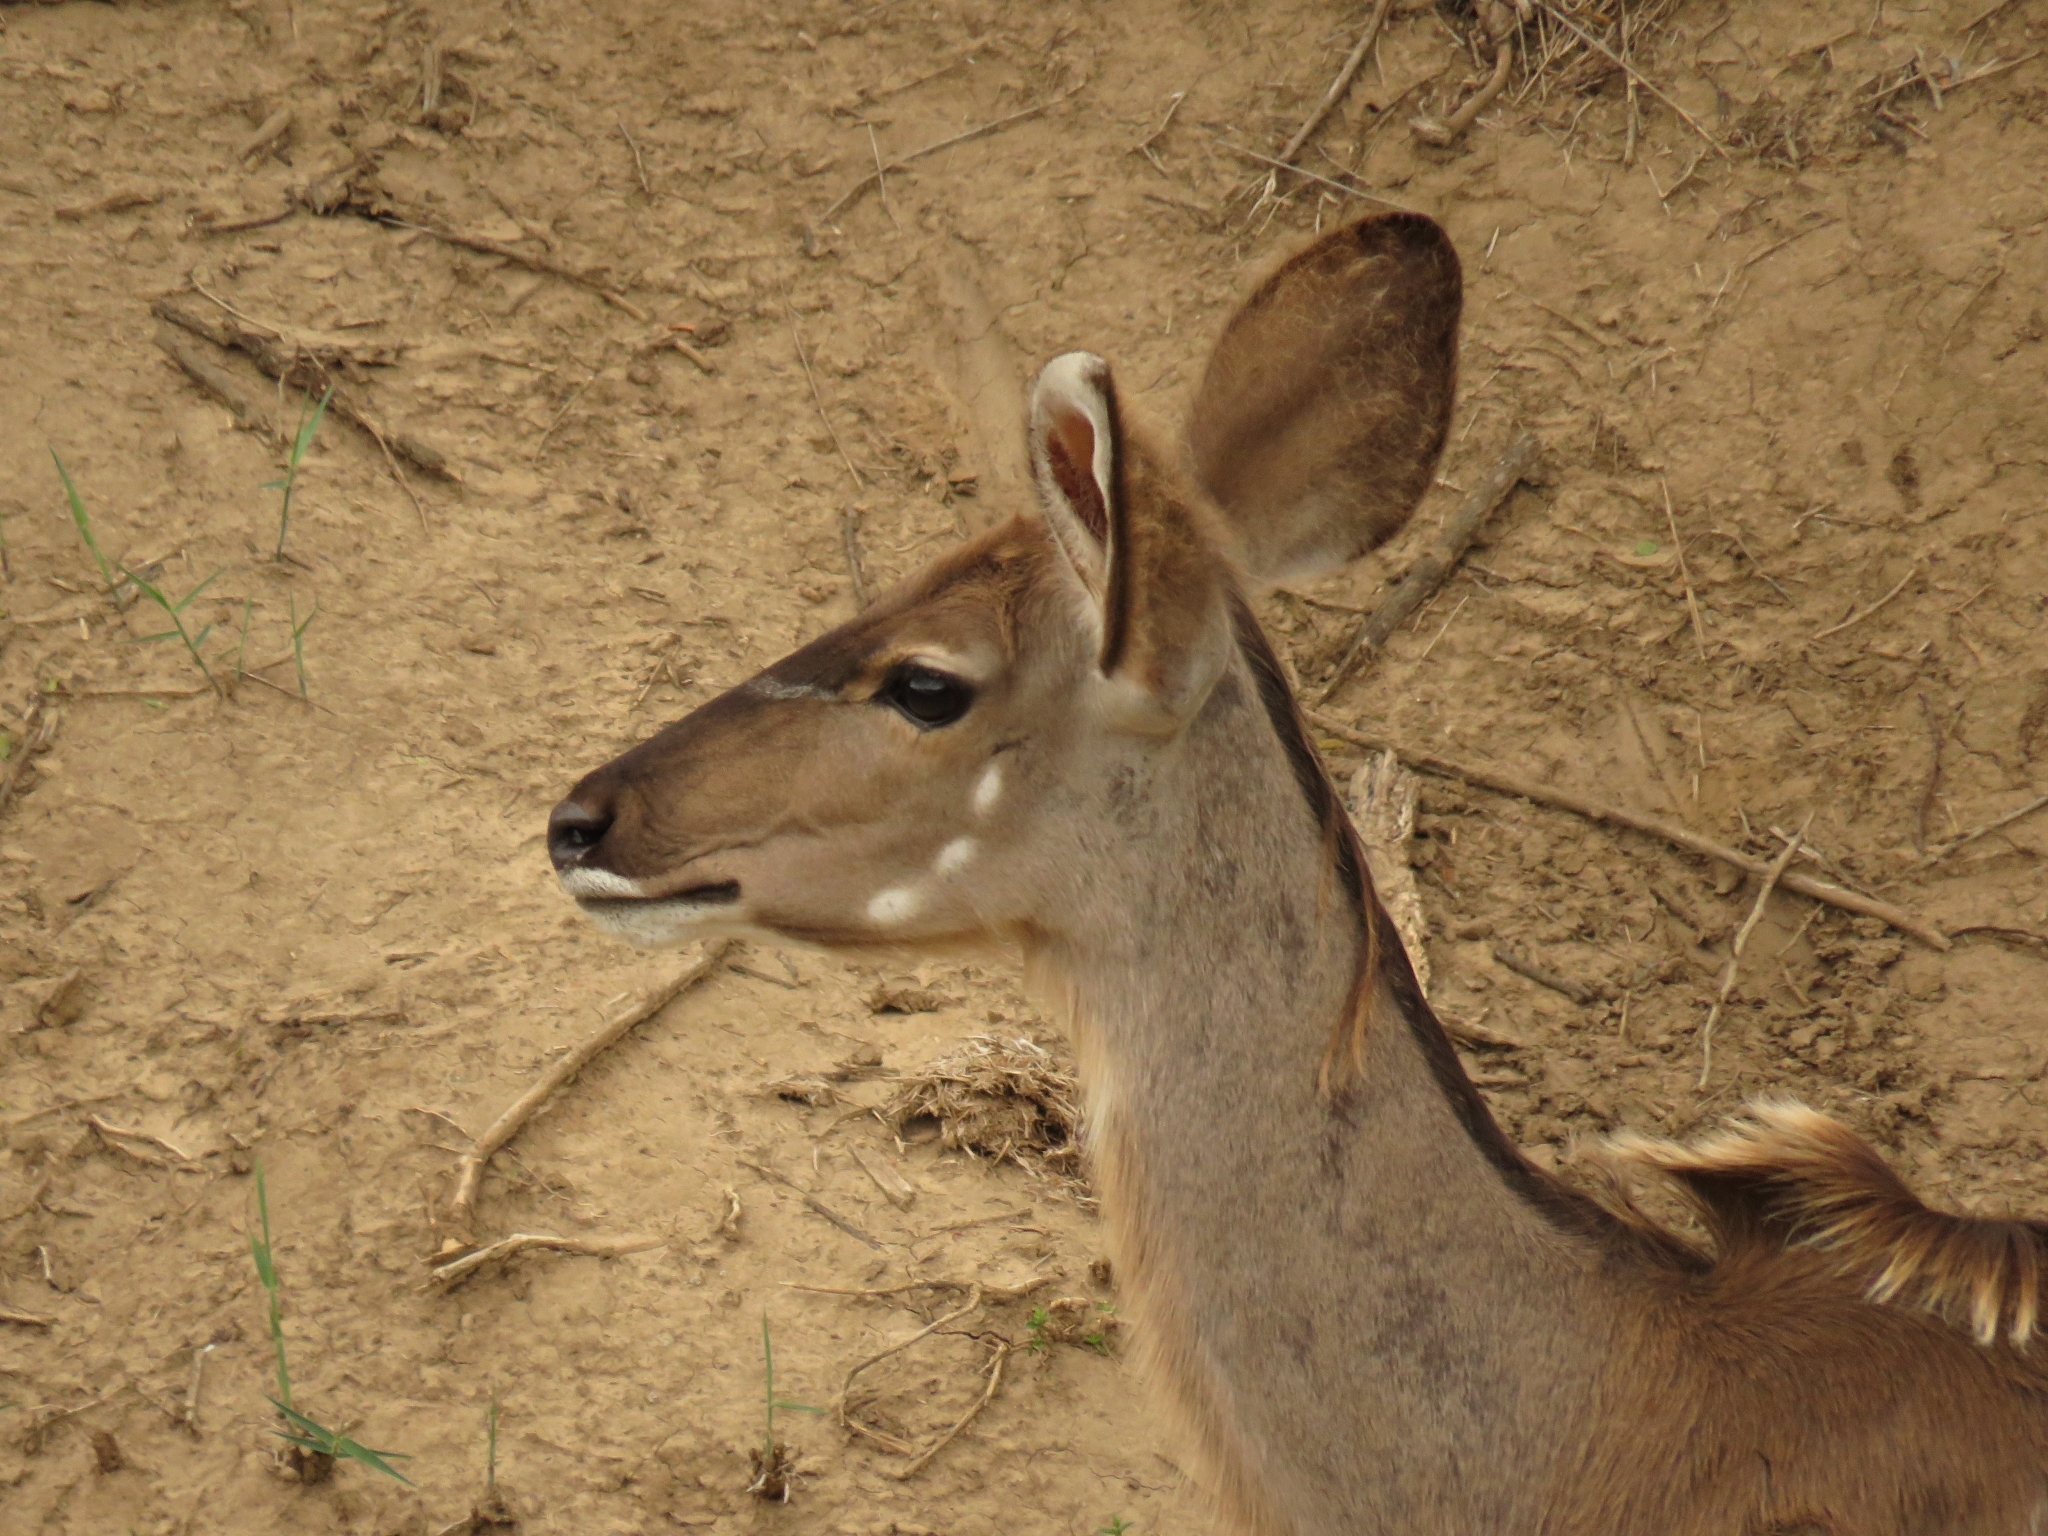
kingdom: Animalia
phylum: Chordata
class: Mammalia
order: Artiodactyla
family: Bovidae
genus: Tragelaphus
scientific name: Tragelaphus strepsiceros
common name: Greater kudu
